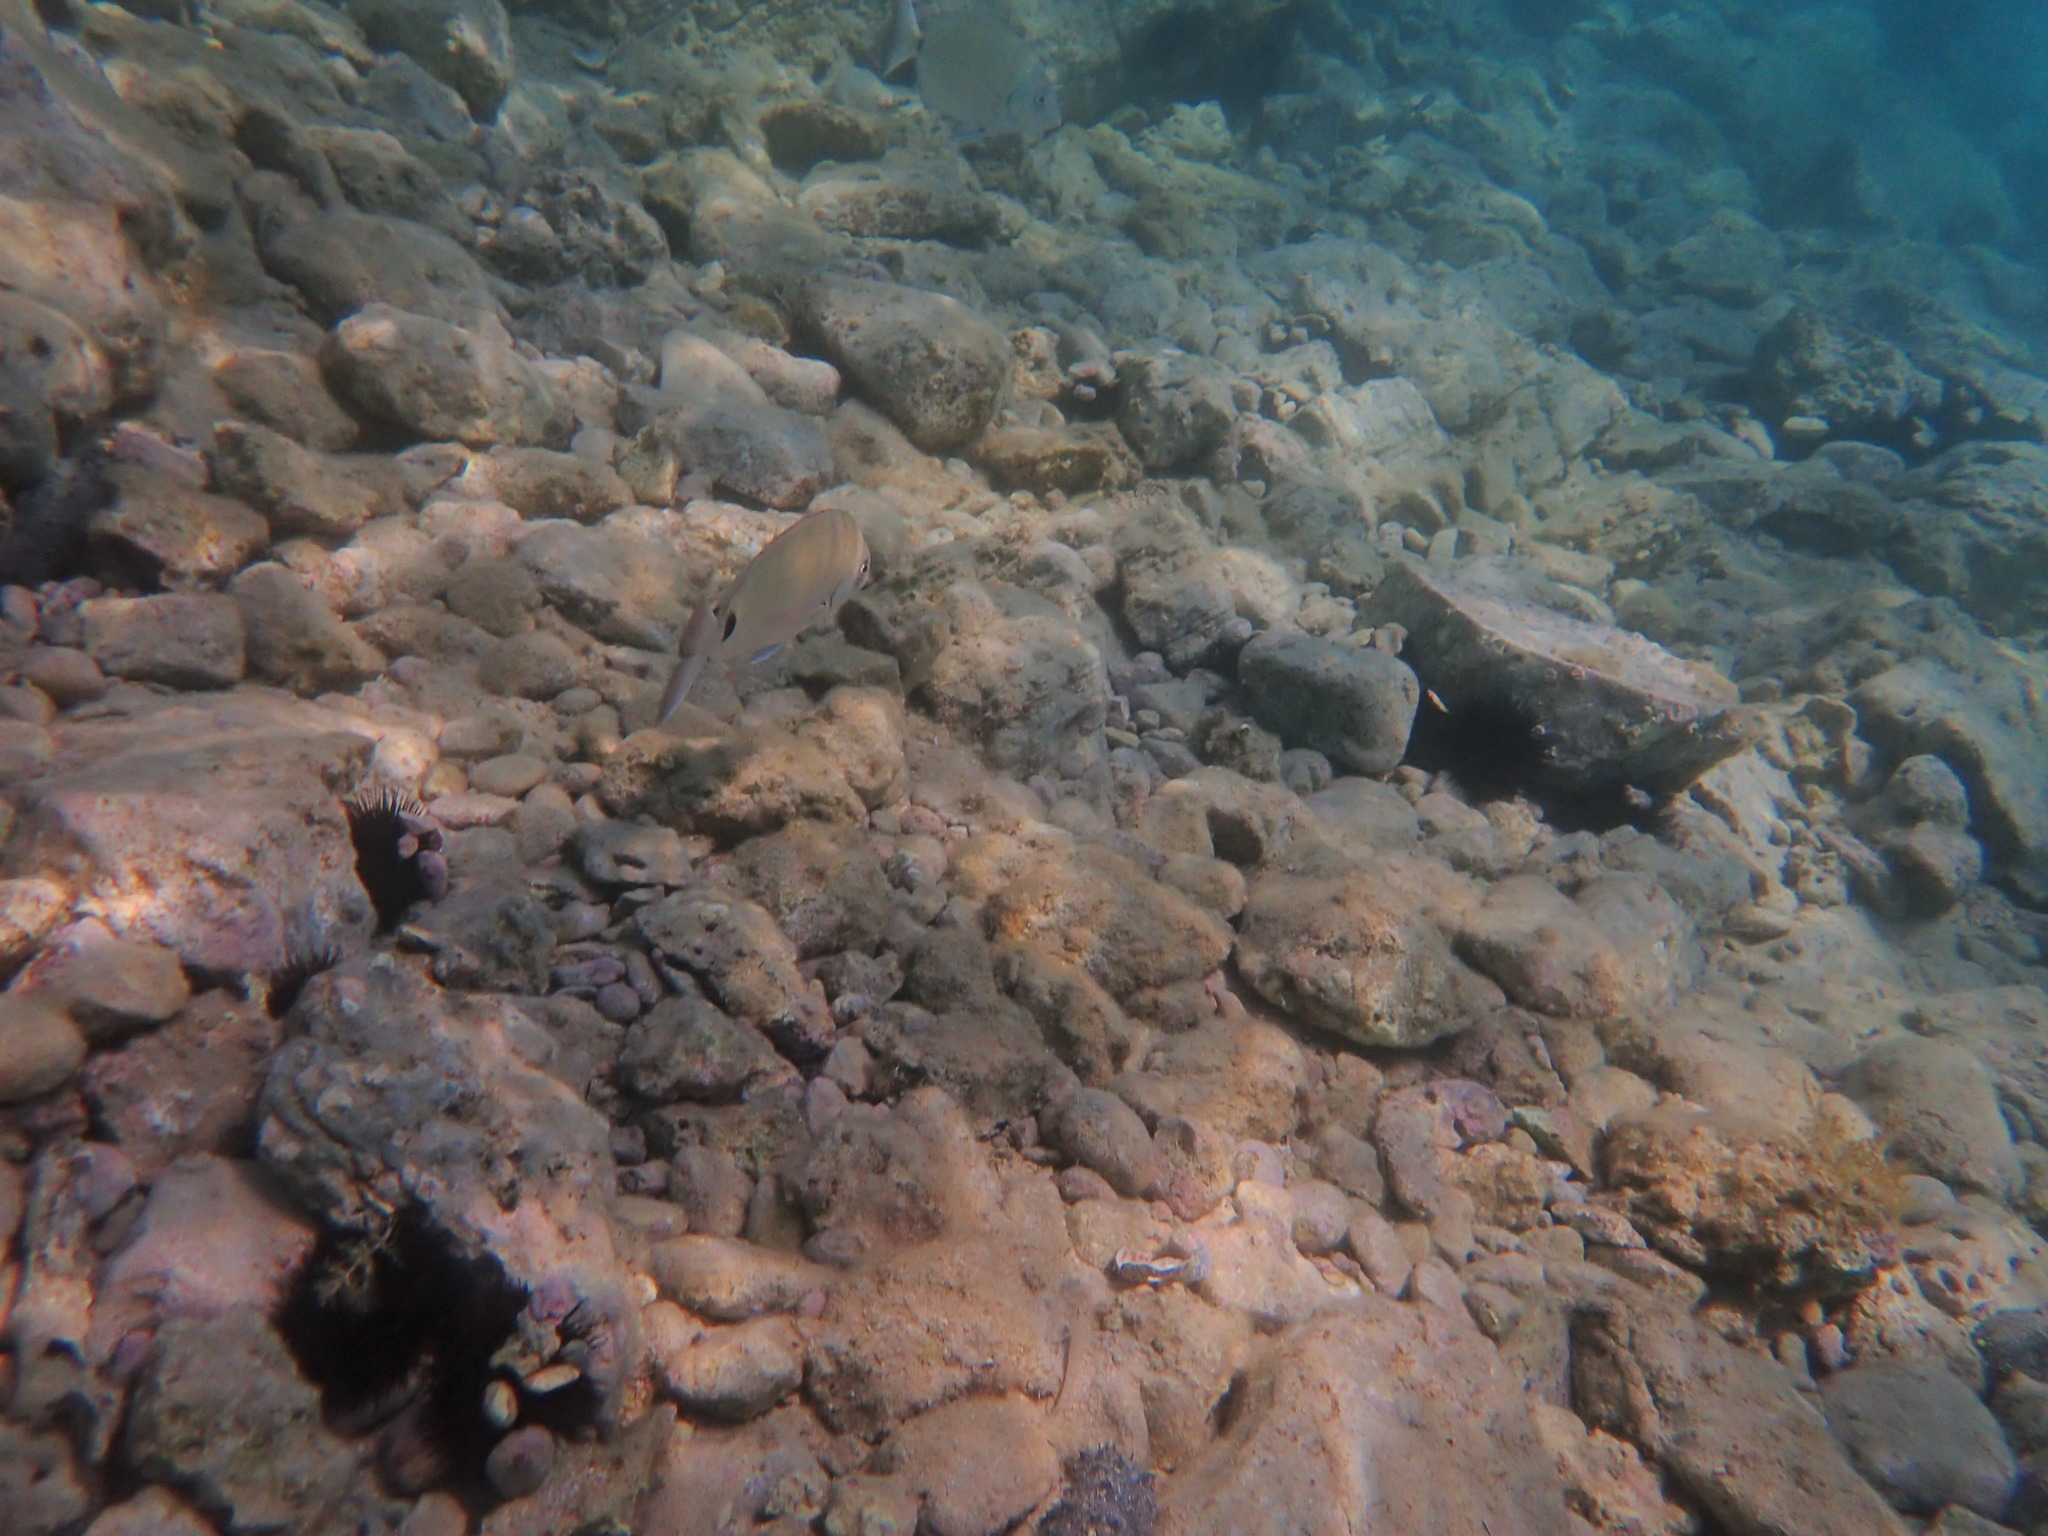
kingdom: Animalia
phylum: Chordata
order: Perciformes
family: Sparidae
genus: Diplodus
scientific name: Diplodus sargus
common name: White seabream
